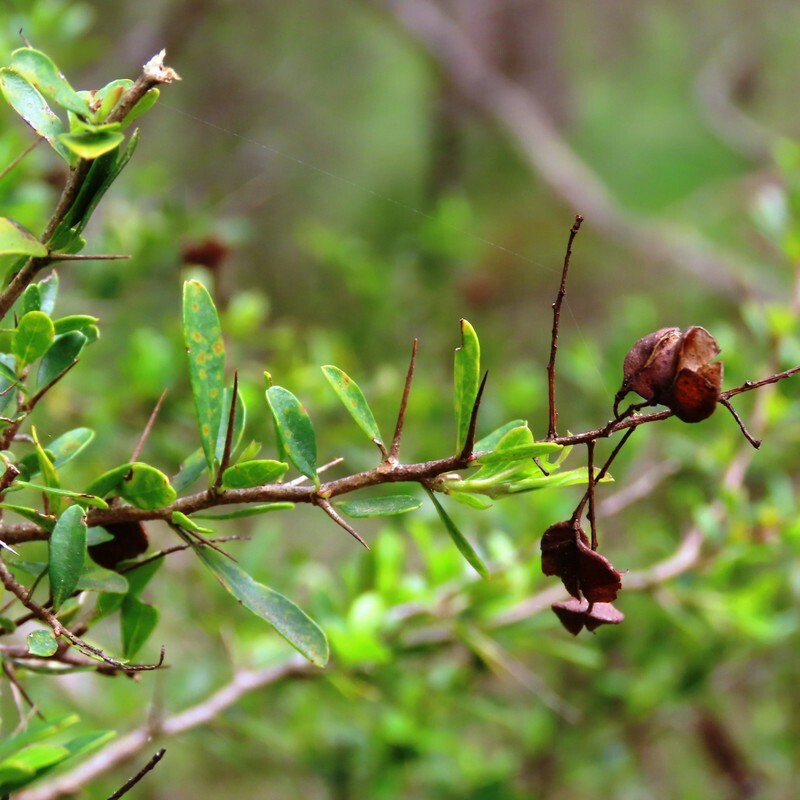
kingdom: Plantae
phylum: Tracheophyta
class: Magnoliopsida
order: Apiales
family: Pittosporaceae
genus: Bursaria
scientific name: Bursaria spinosa
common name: Australian blackthorn
